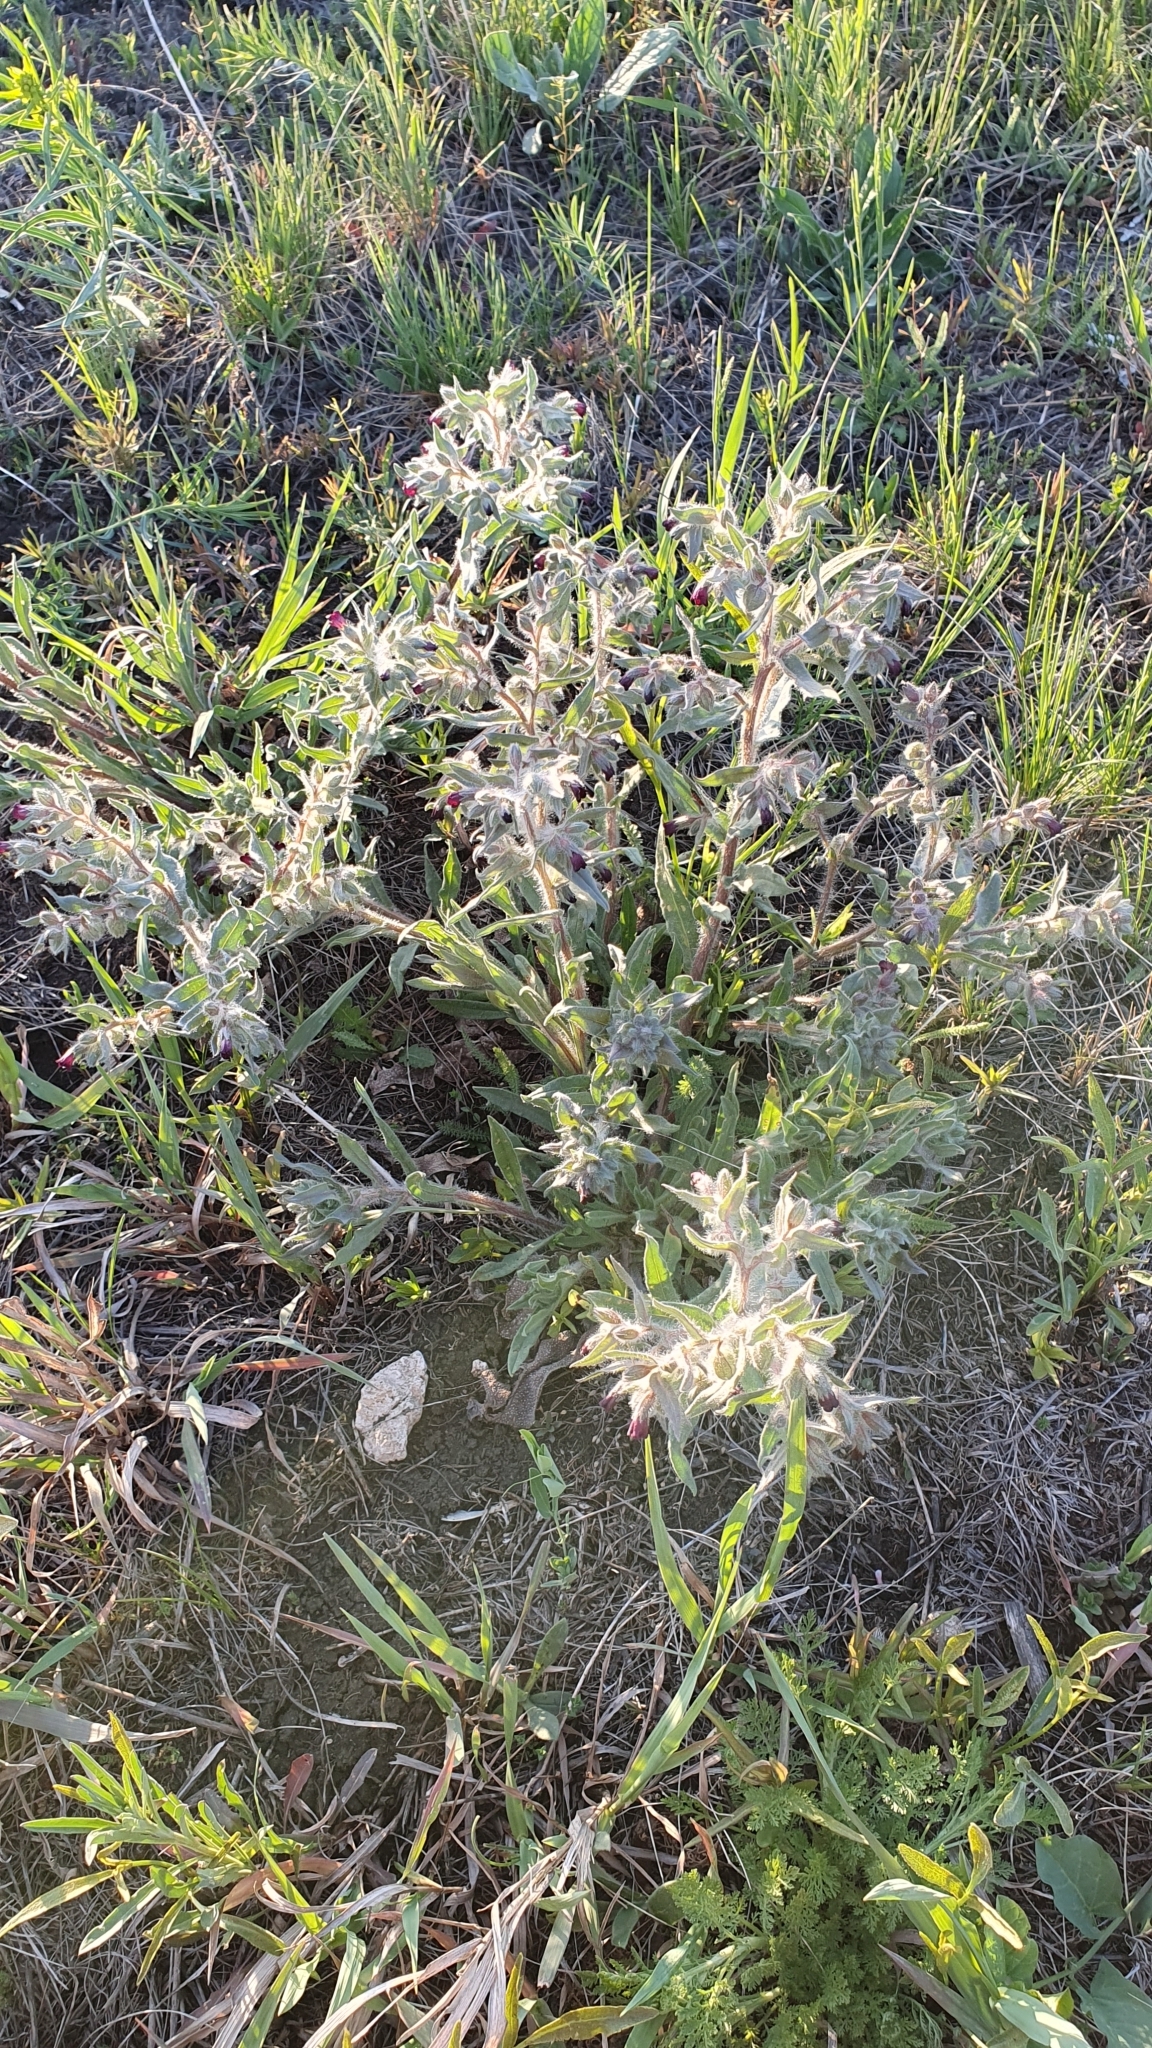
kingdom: Plantae
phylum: Tracheophyta
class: Magnoliopsida
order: Boraginales
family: Boraginaceae
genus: Nonea
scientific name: Nonea pulla
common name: Brown nonea
